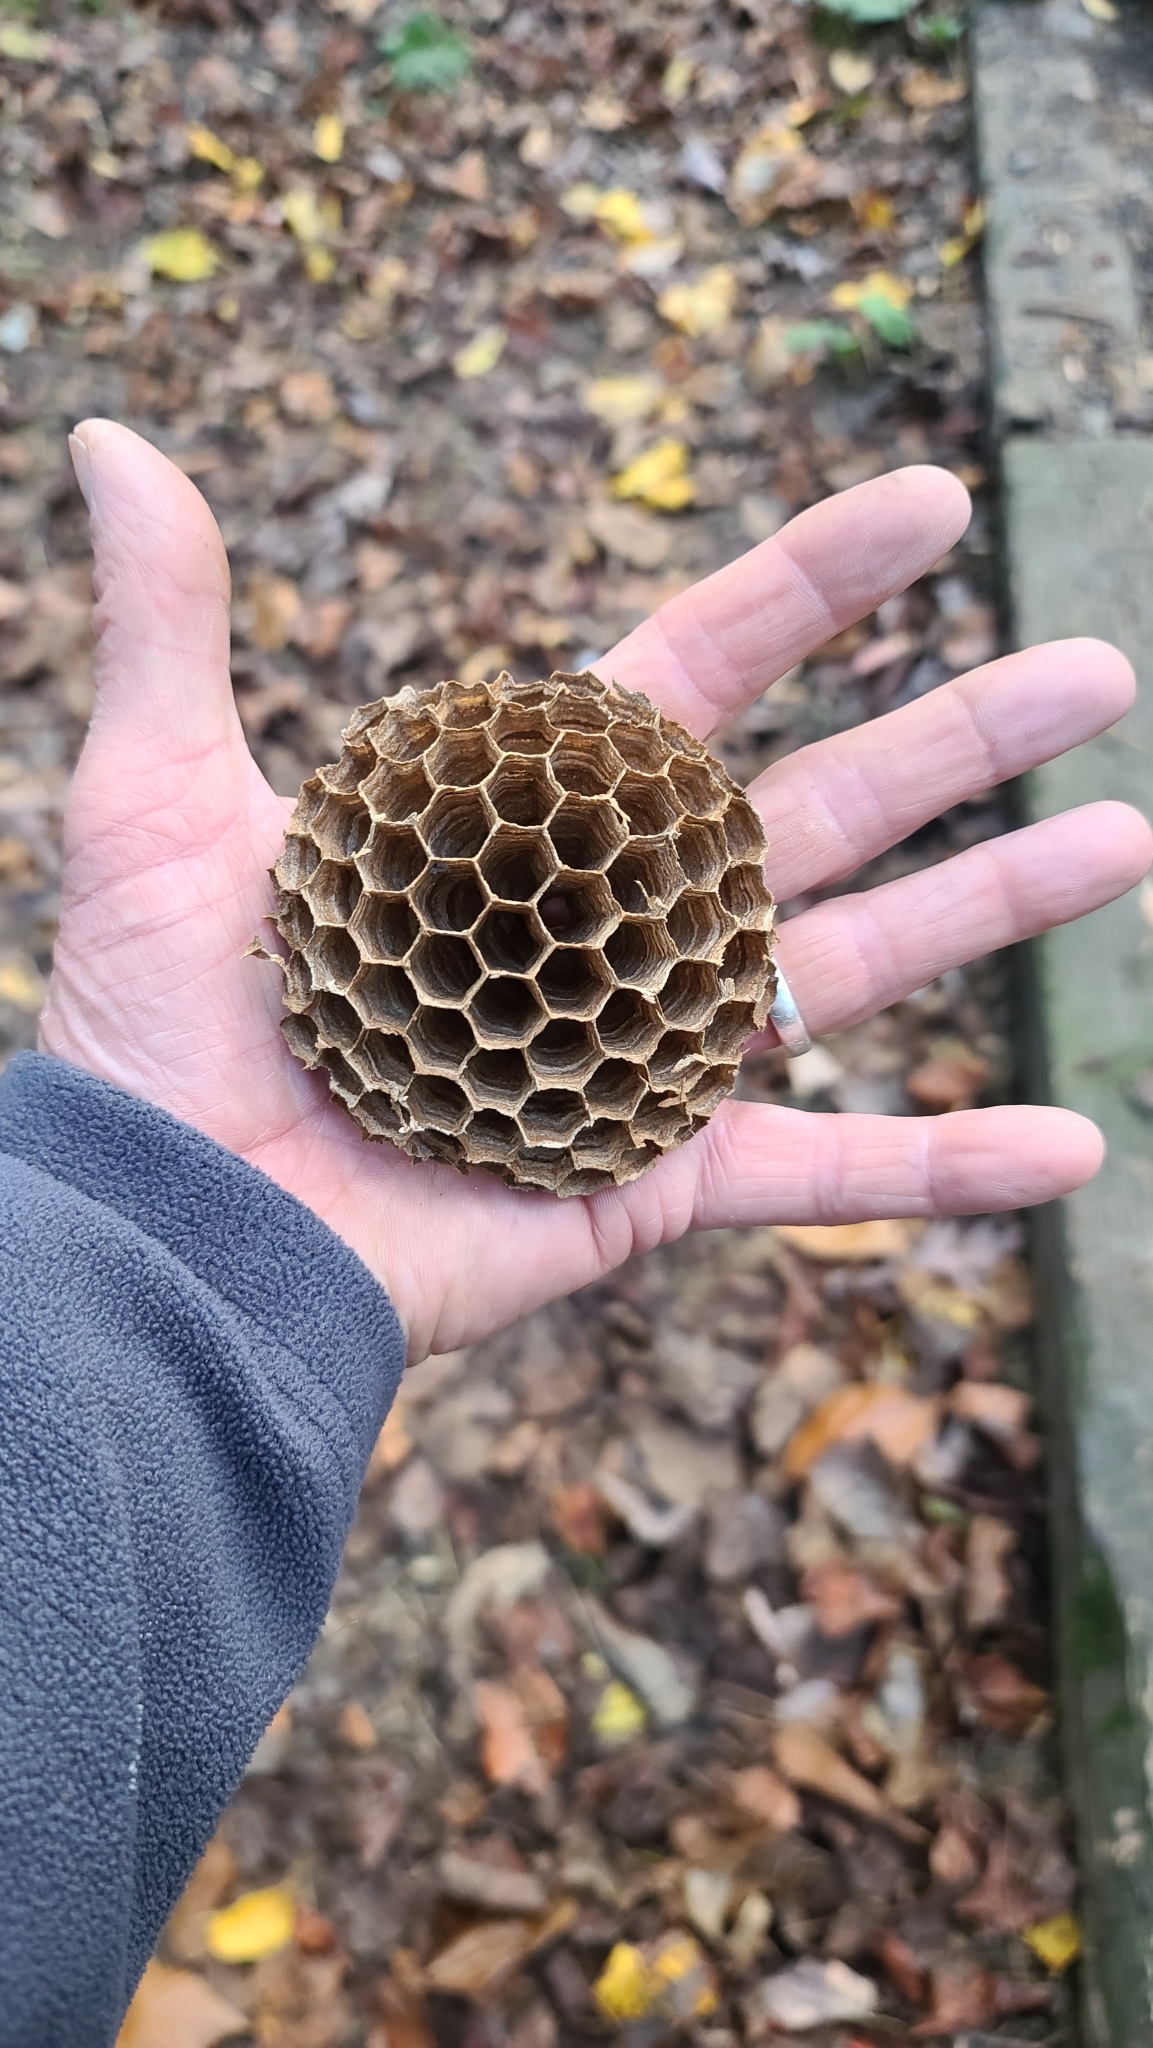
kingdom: Animalia
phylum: Arthropoda
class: Insecta
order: Hymenoptera
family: Vespidae
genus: Vespa
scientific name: Vespa crabro
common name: Hornet
